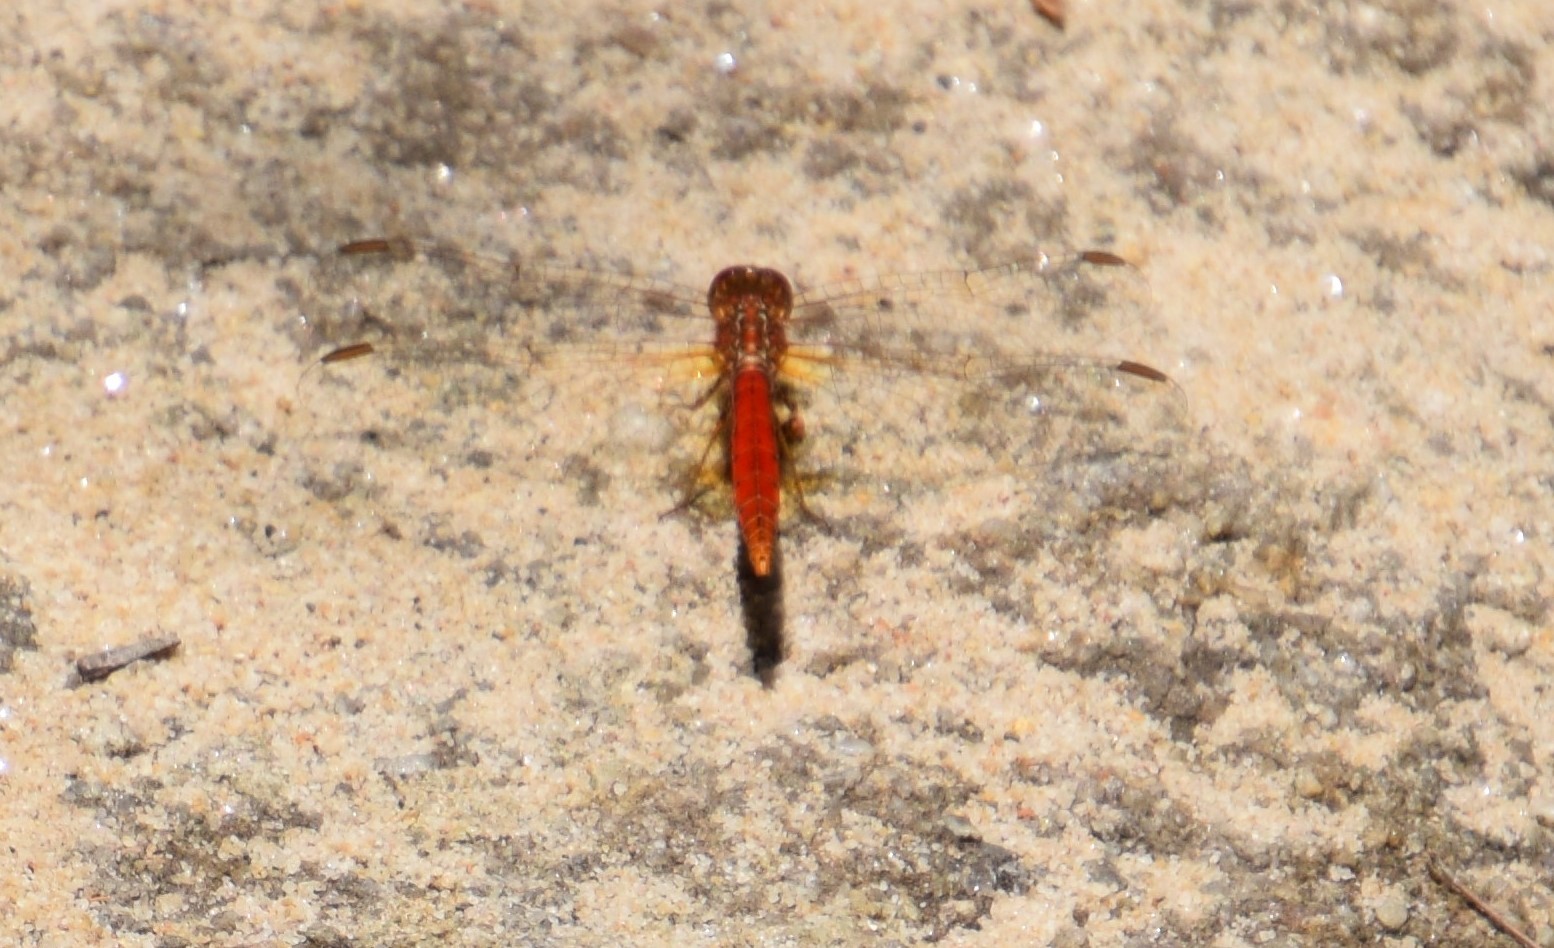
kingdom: Animalia
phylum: Arthropoda
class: Insecta
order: Odonata
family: Libellulidae
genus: Diplacodes
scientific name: Diplacodes haematodes
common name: Scarlet percher
